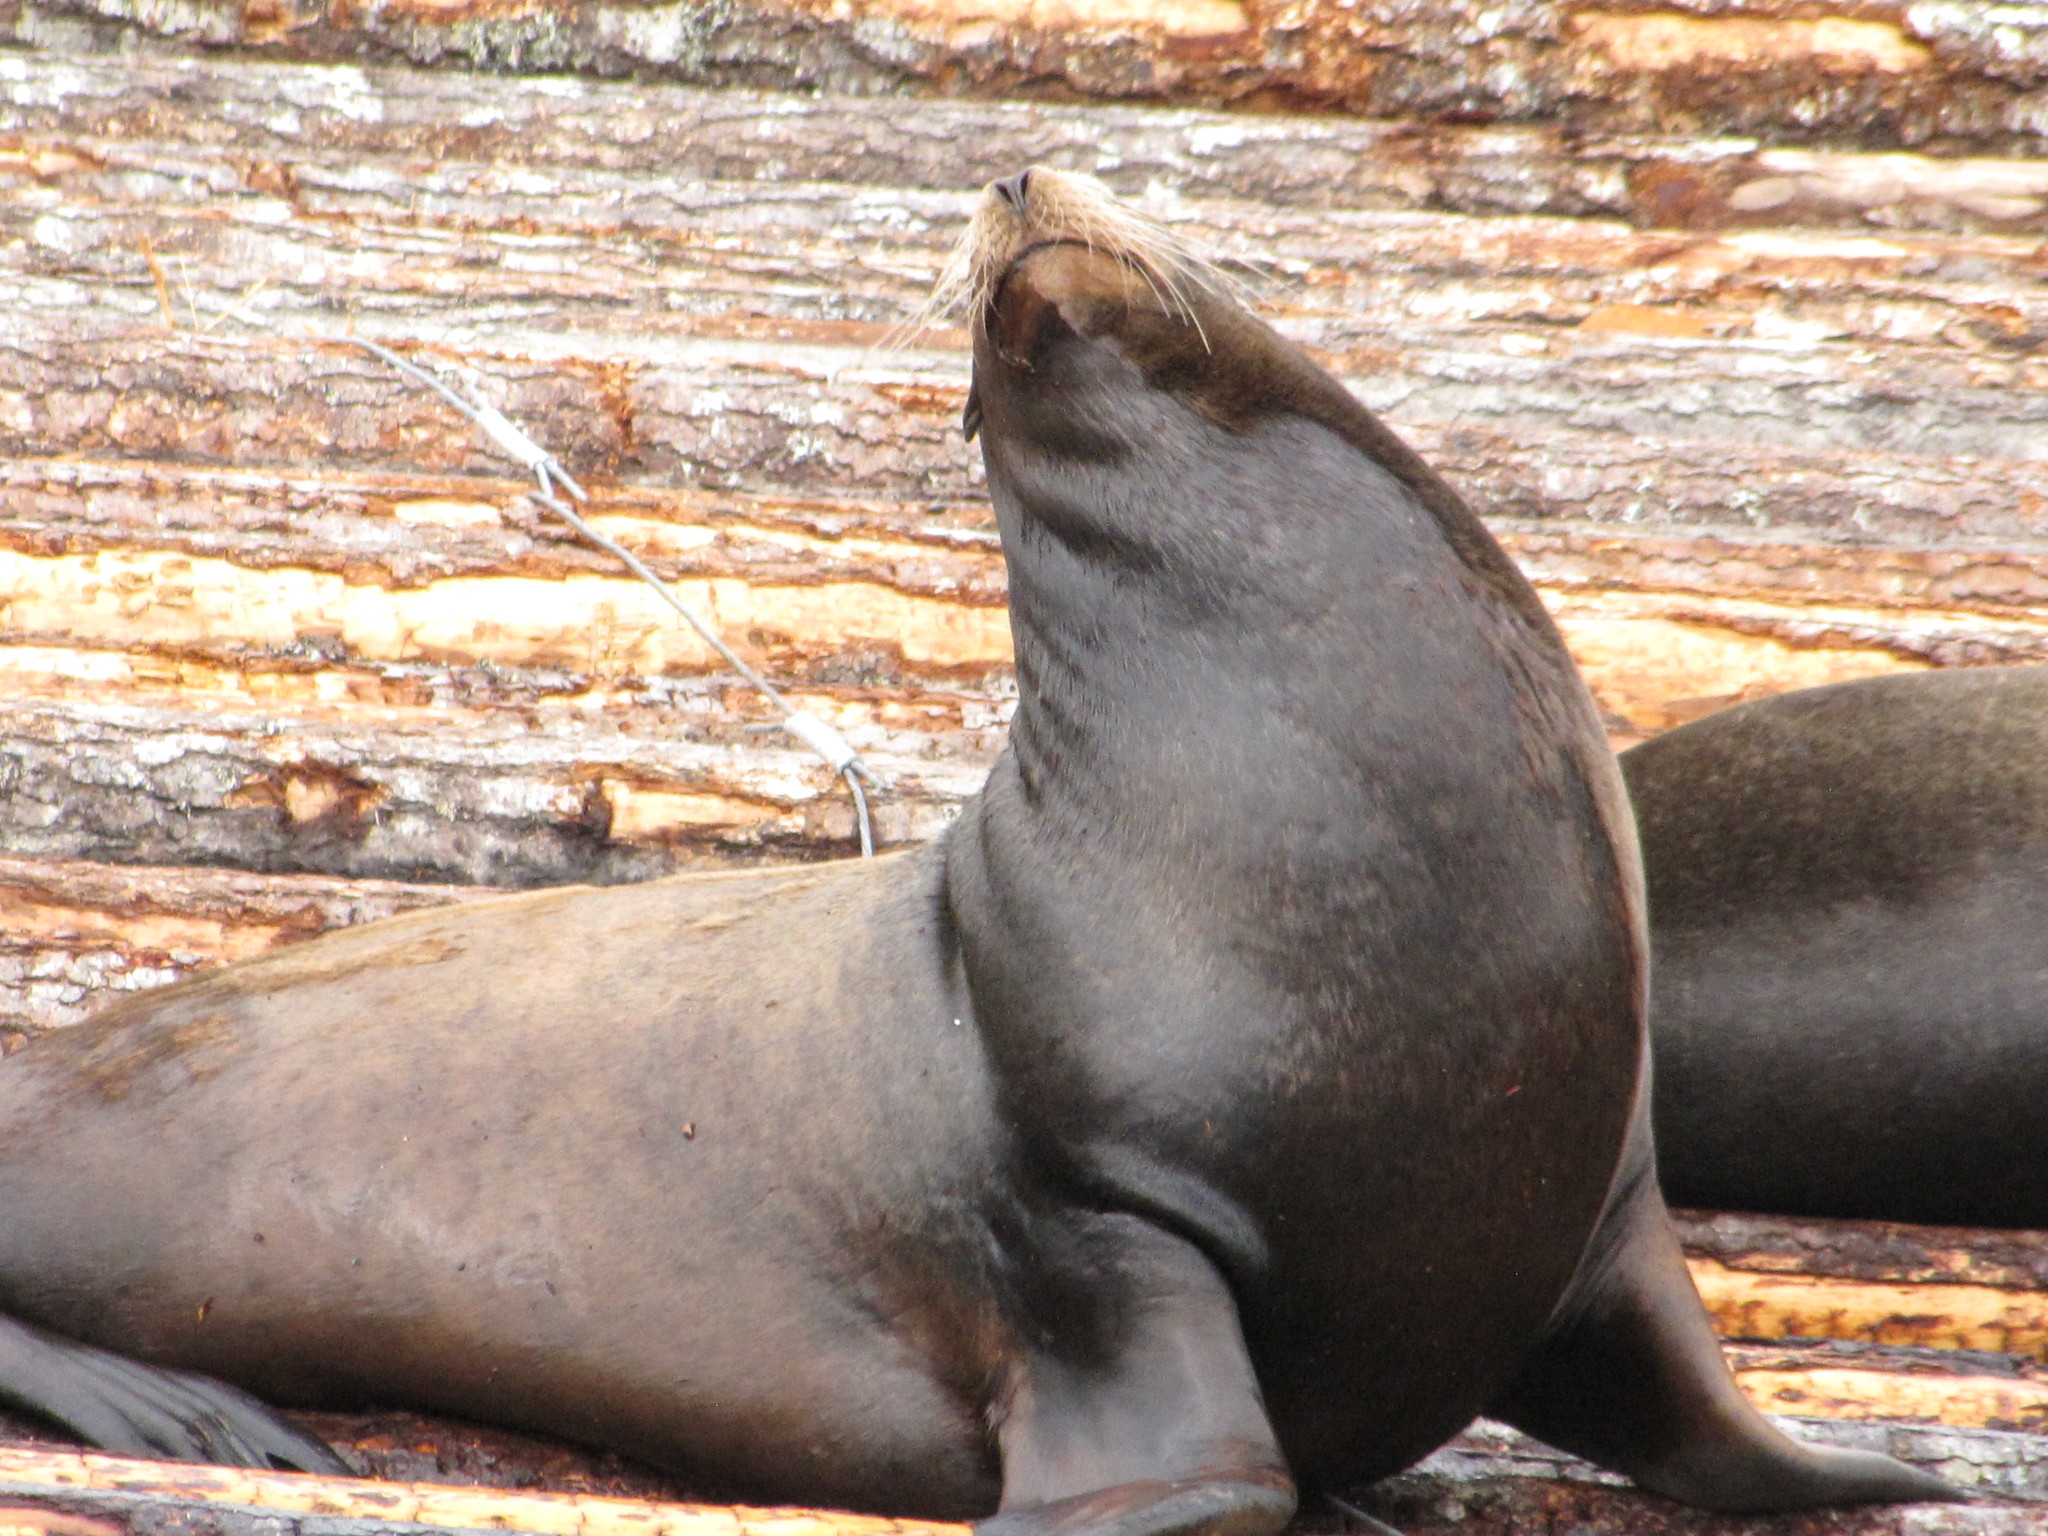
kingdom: Animalia
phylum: Chordata
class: Mammalia
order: Carnivora
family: Otariidae
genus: Zalophus
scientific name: Zalophus californianus
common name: California sea lion
